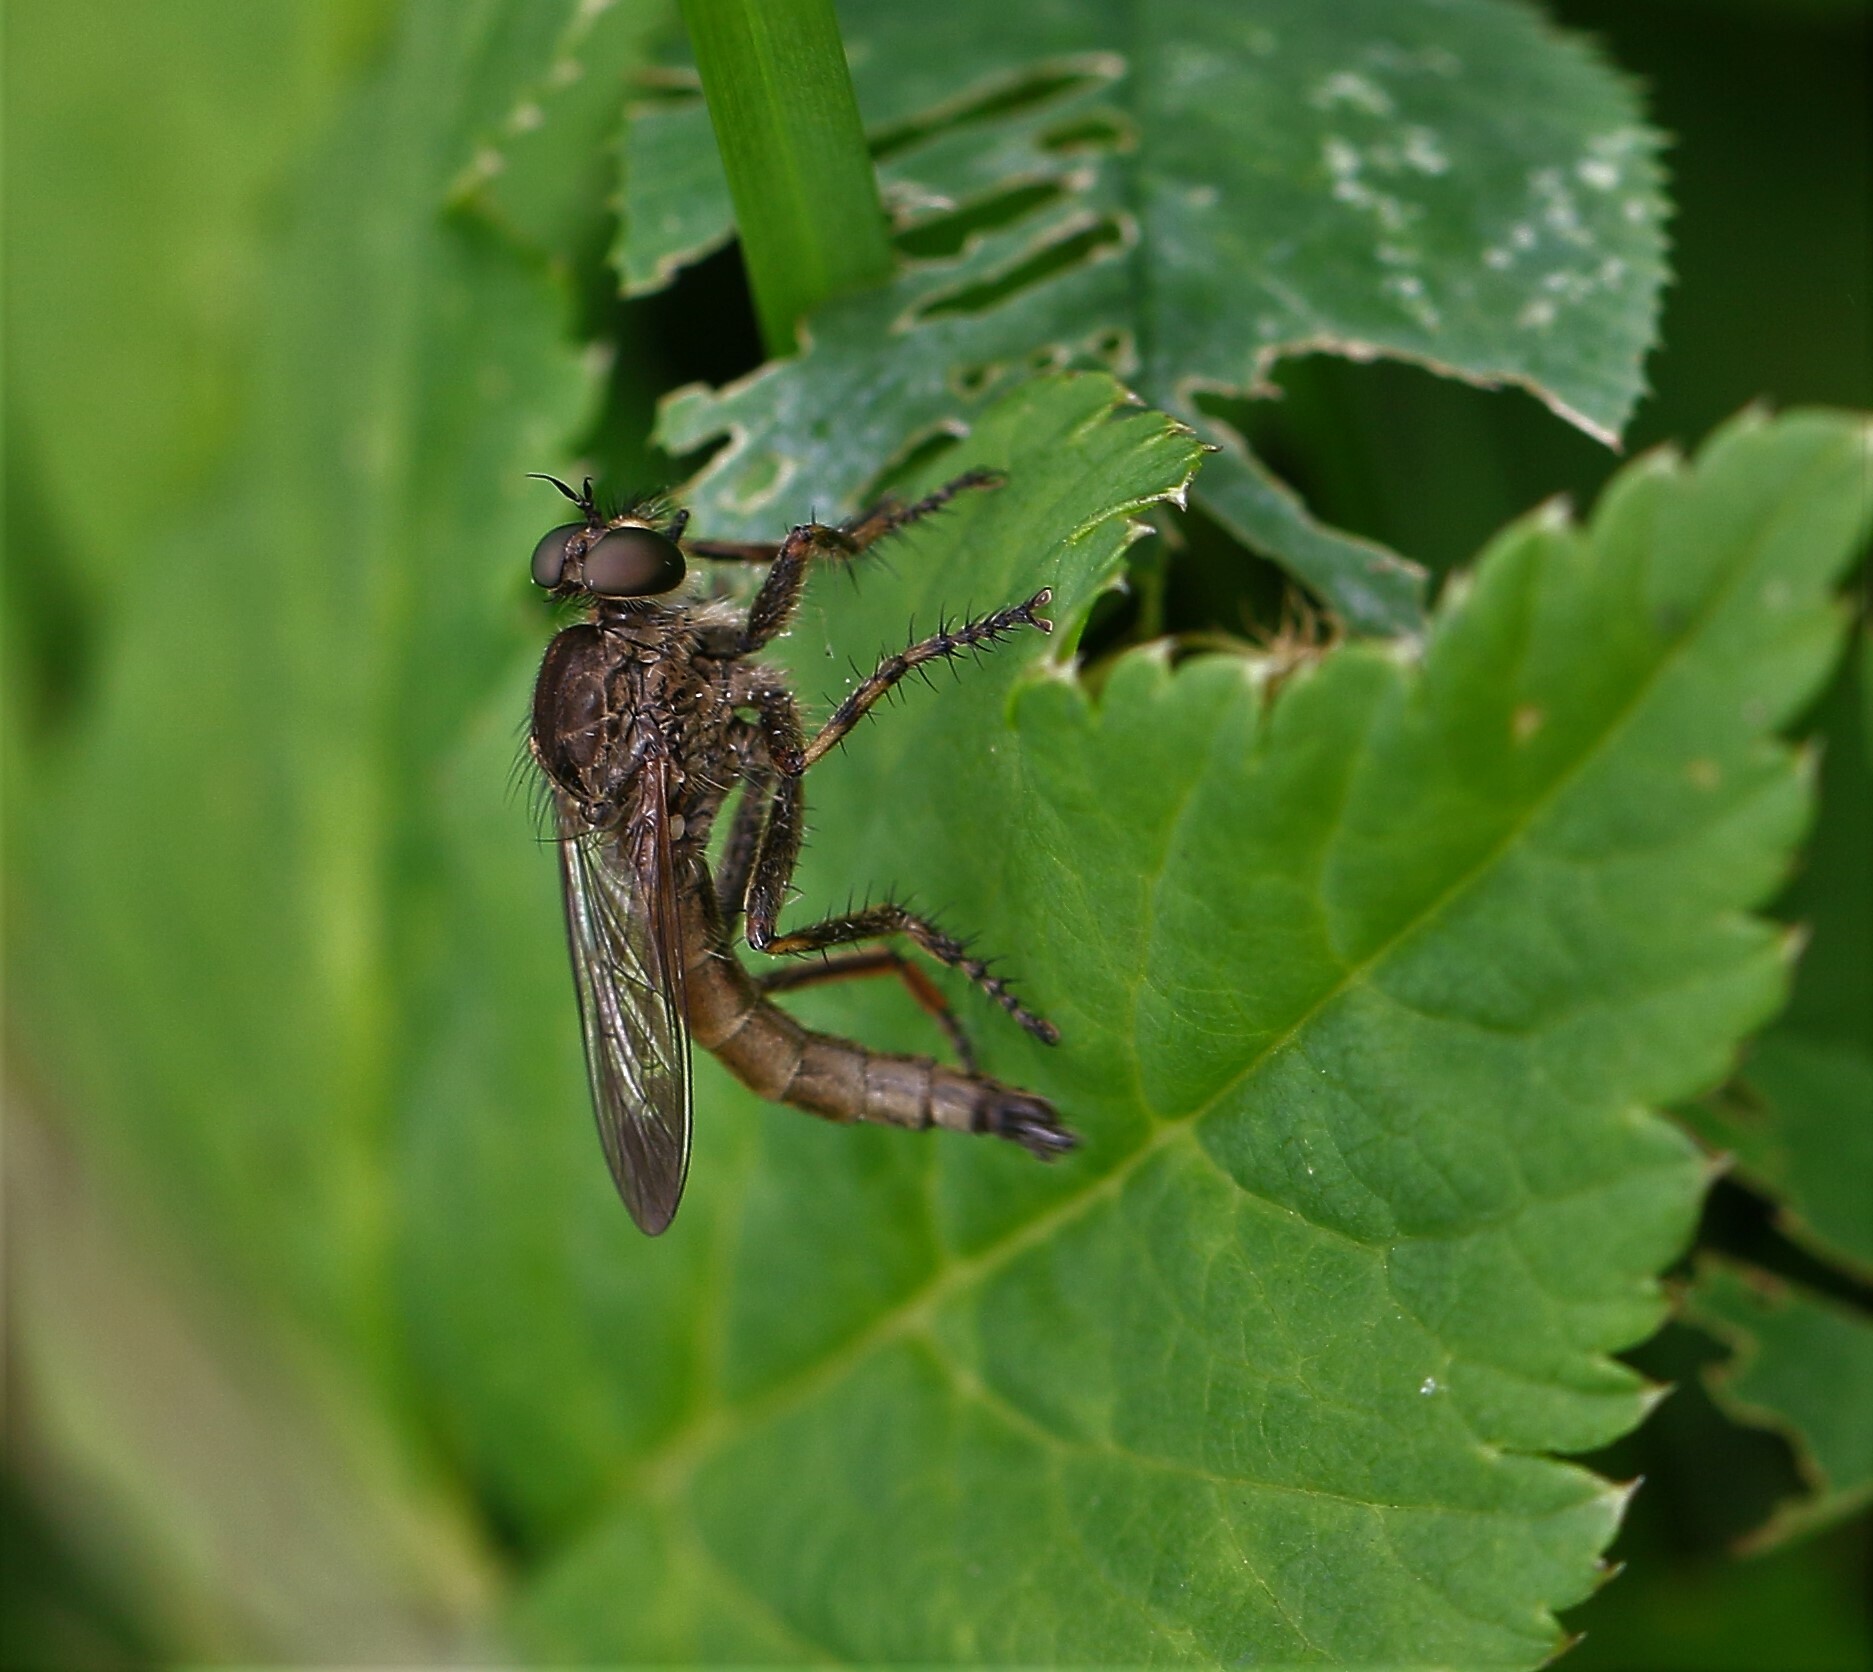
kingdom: Animalia
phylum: Arthropoda
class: Insecta
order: Diptera
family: Asilidae
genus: Machimus
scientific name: Machimus snowii
